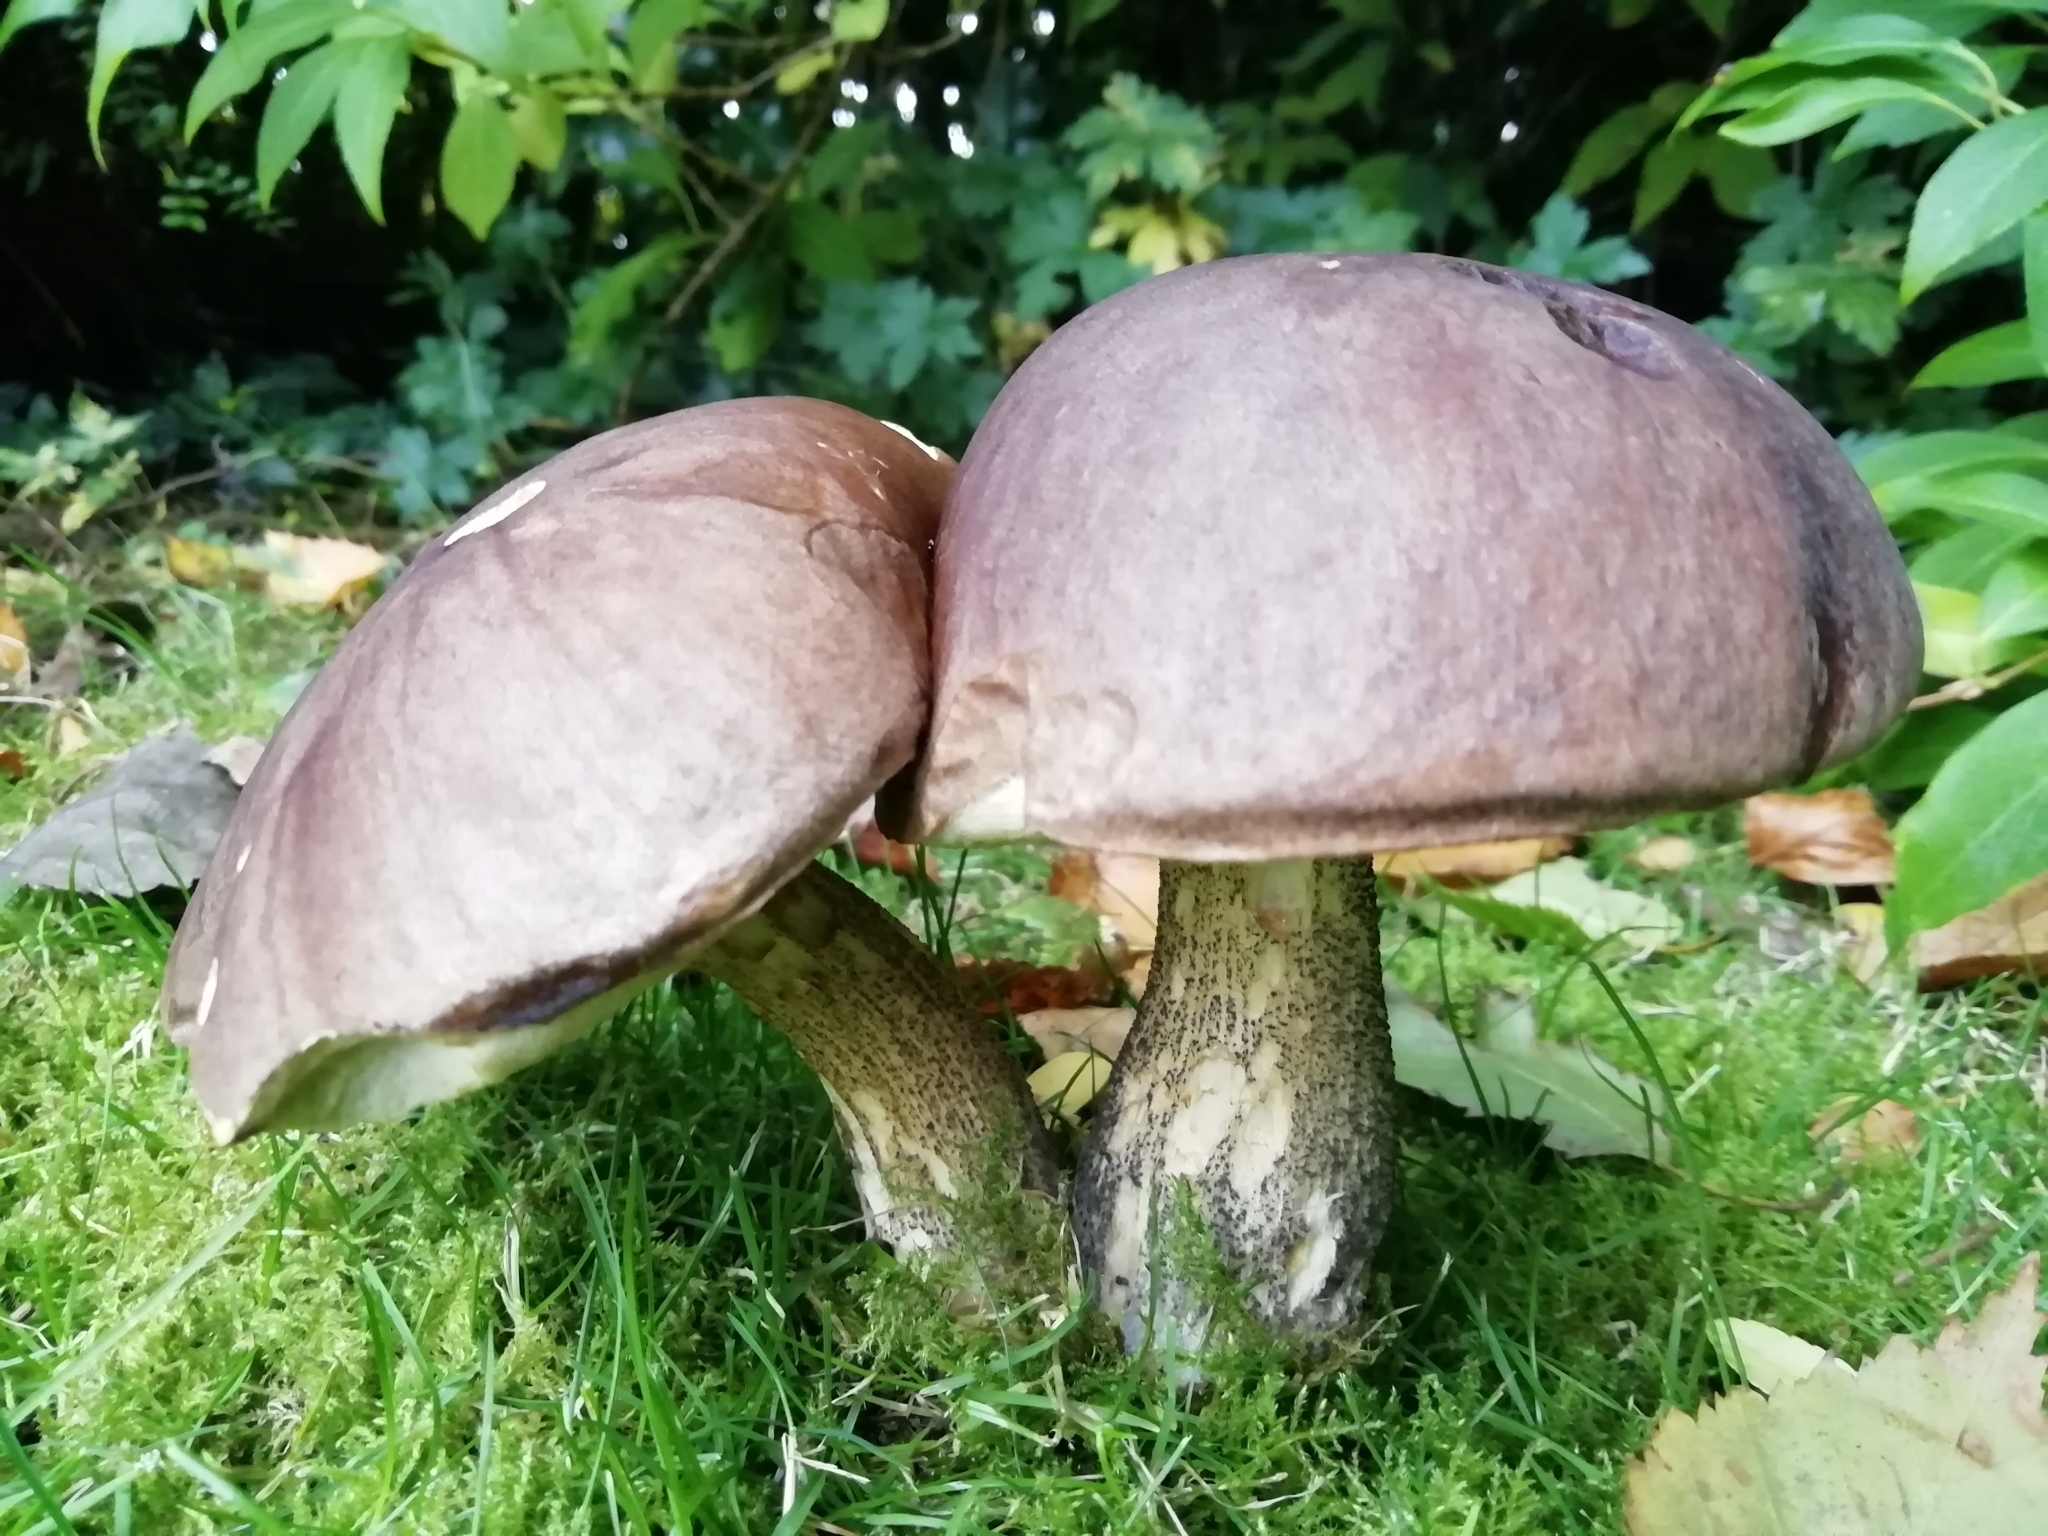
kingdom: Fungi
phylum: Basidiomycota
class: Agaricomycetes
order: Boletales
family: Boletaceae
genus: Leccinum
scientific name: Leccinum scabrum
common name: Blushing bolete
